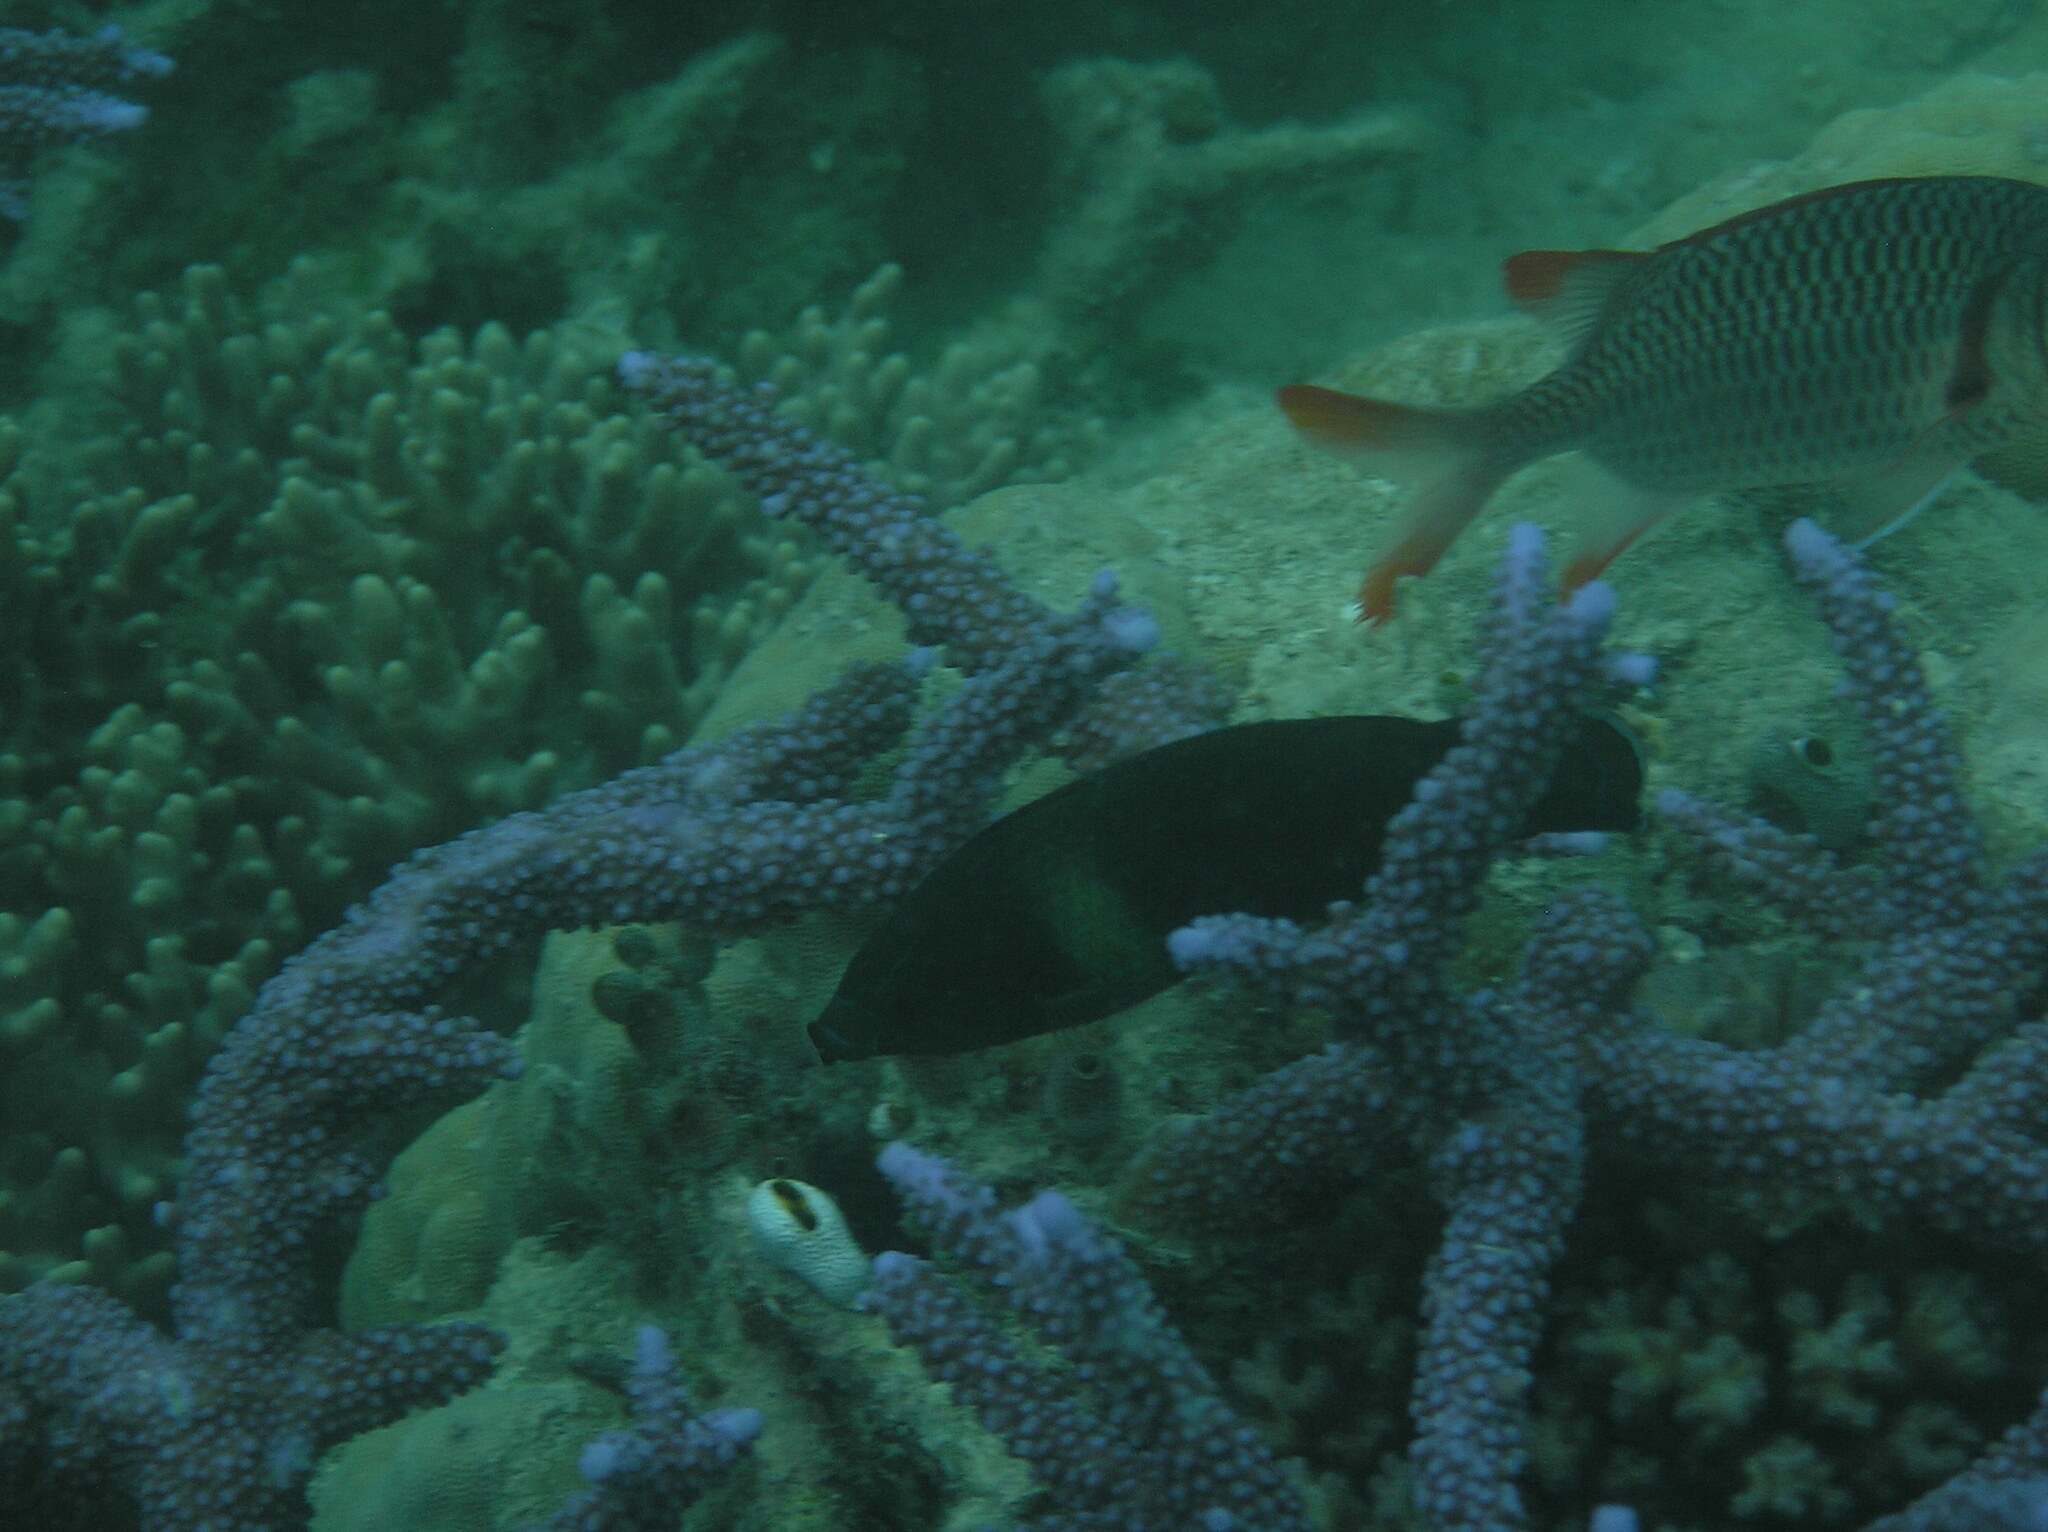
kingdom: Animalia
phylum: Chordata
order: Perciformes
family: Labridae
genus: Labrichthys
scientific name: Labrichthys unilineatus
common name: Onelined wrasse
